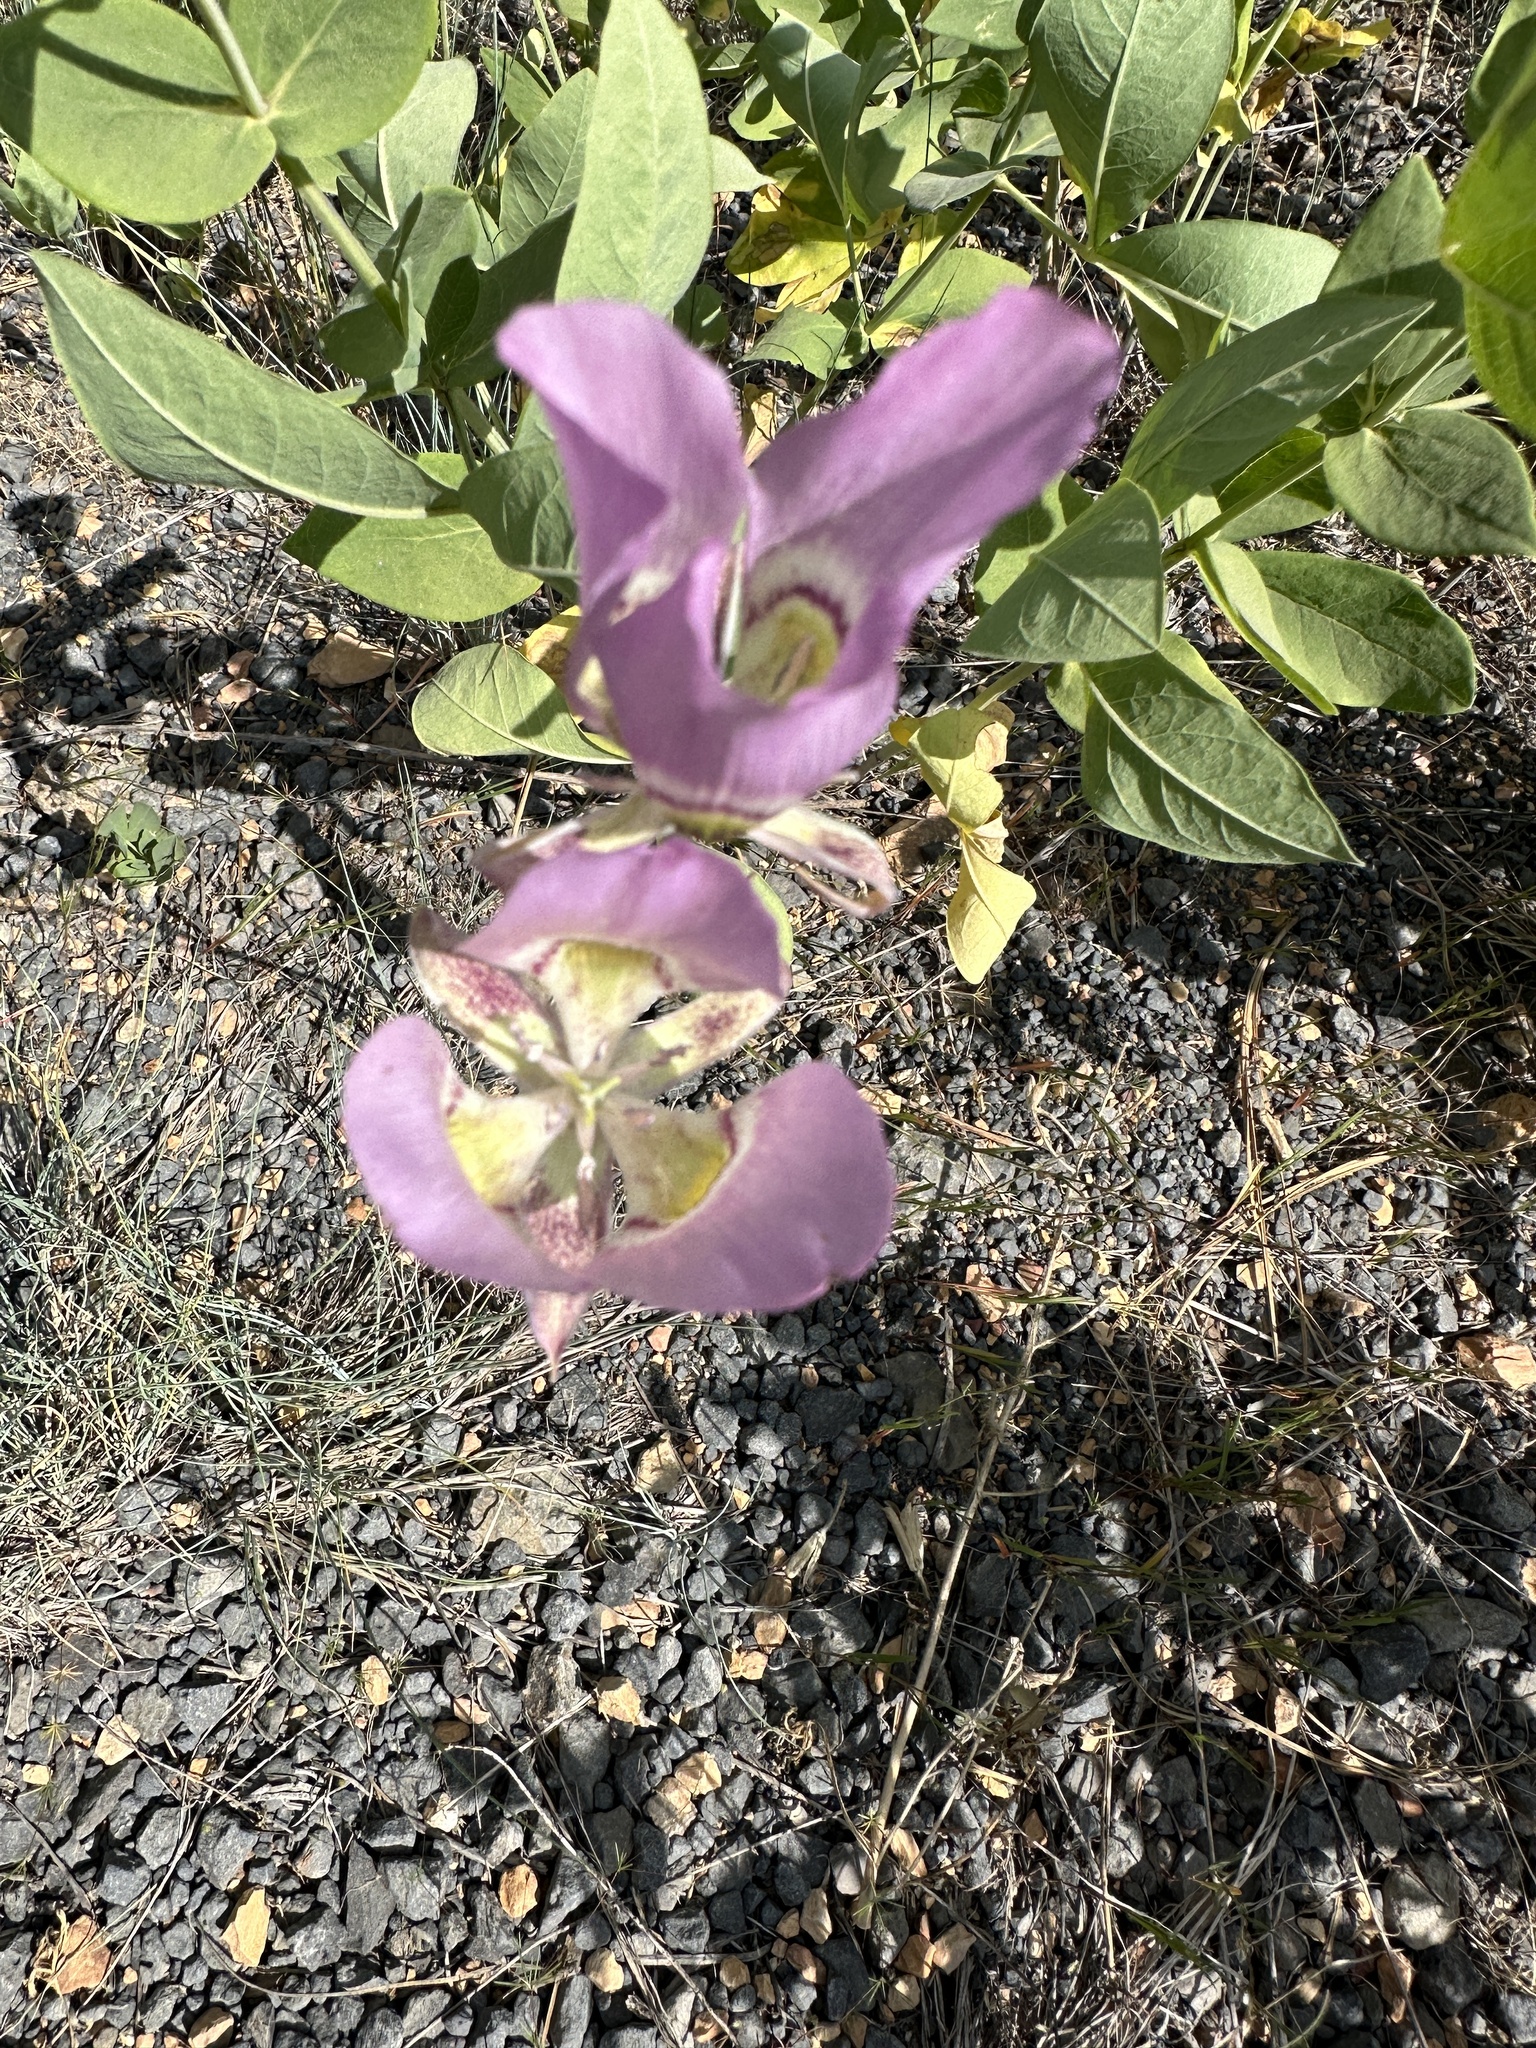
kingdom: Plantae
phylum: Tracheophyta
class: Liliopsida
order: Liliales
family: Liliaceae
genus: Calochortus
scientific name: Calochortus nitidus
